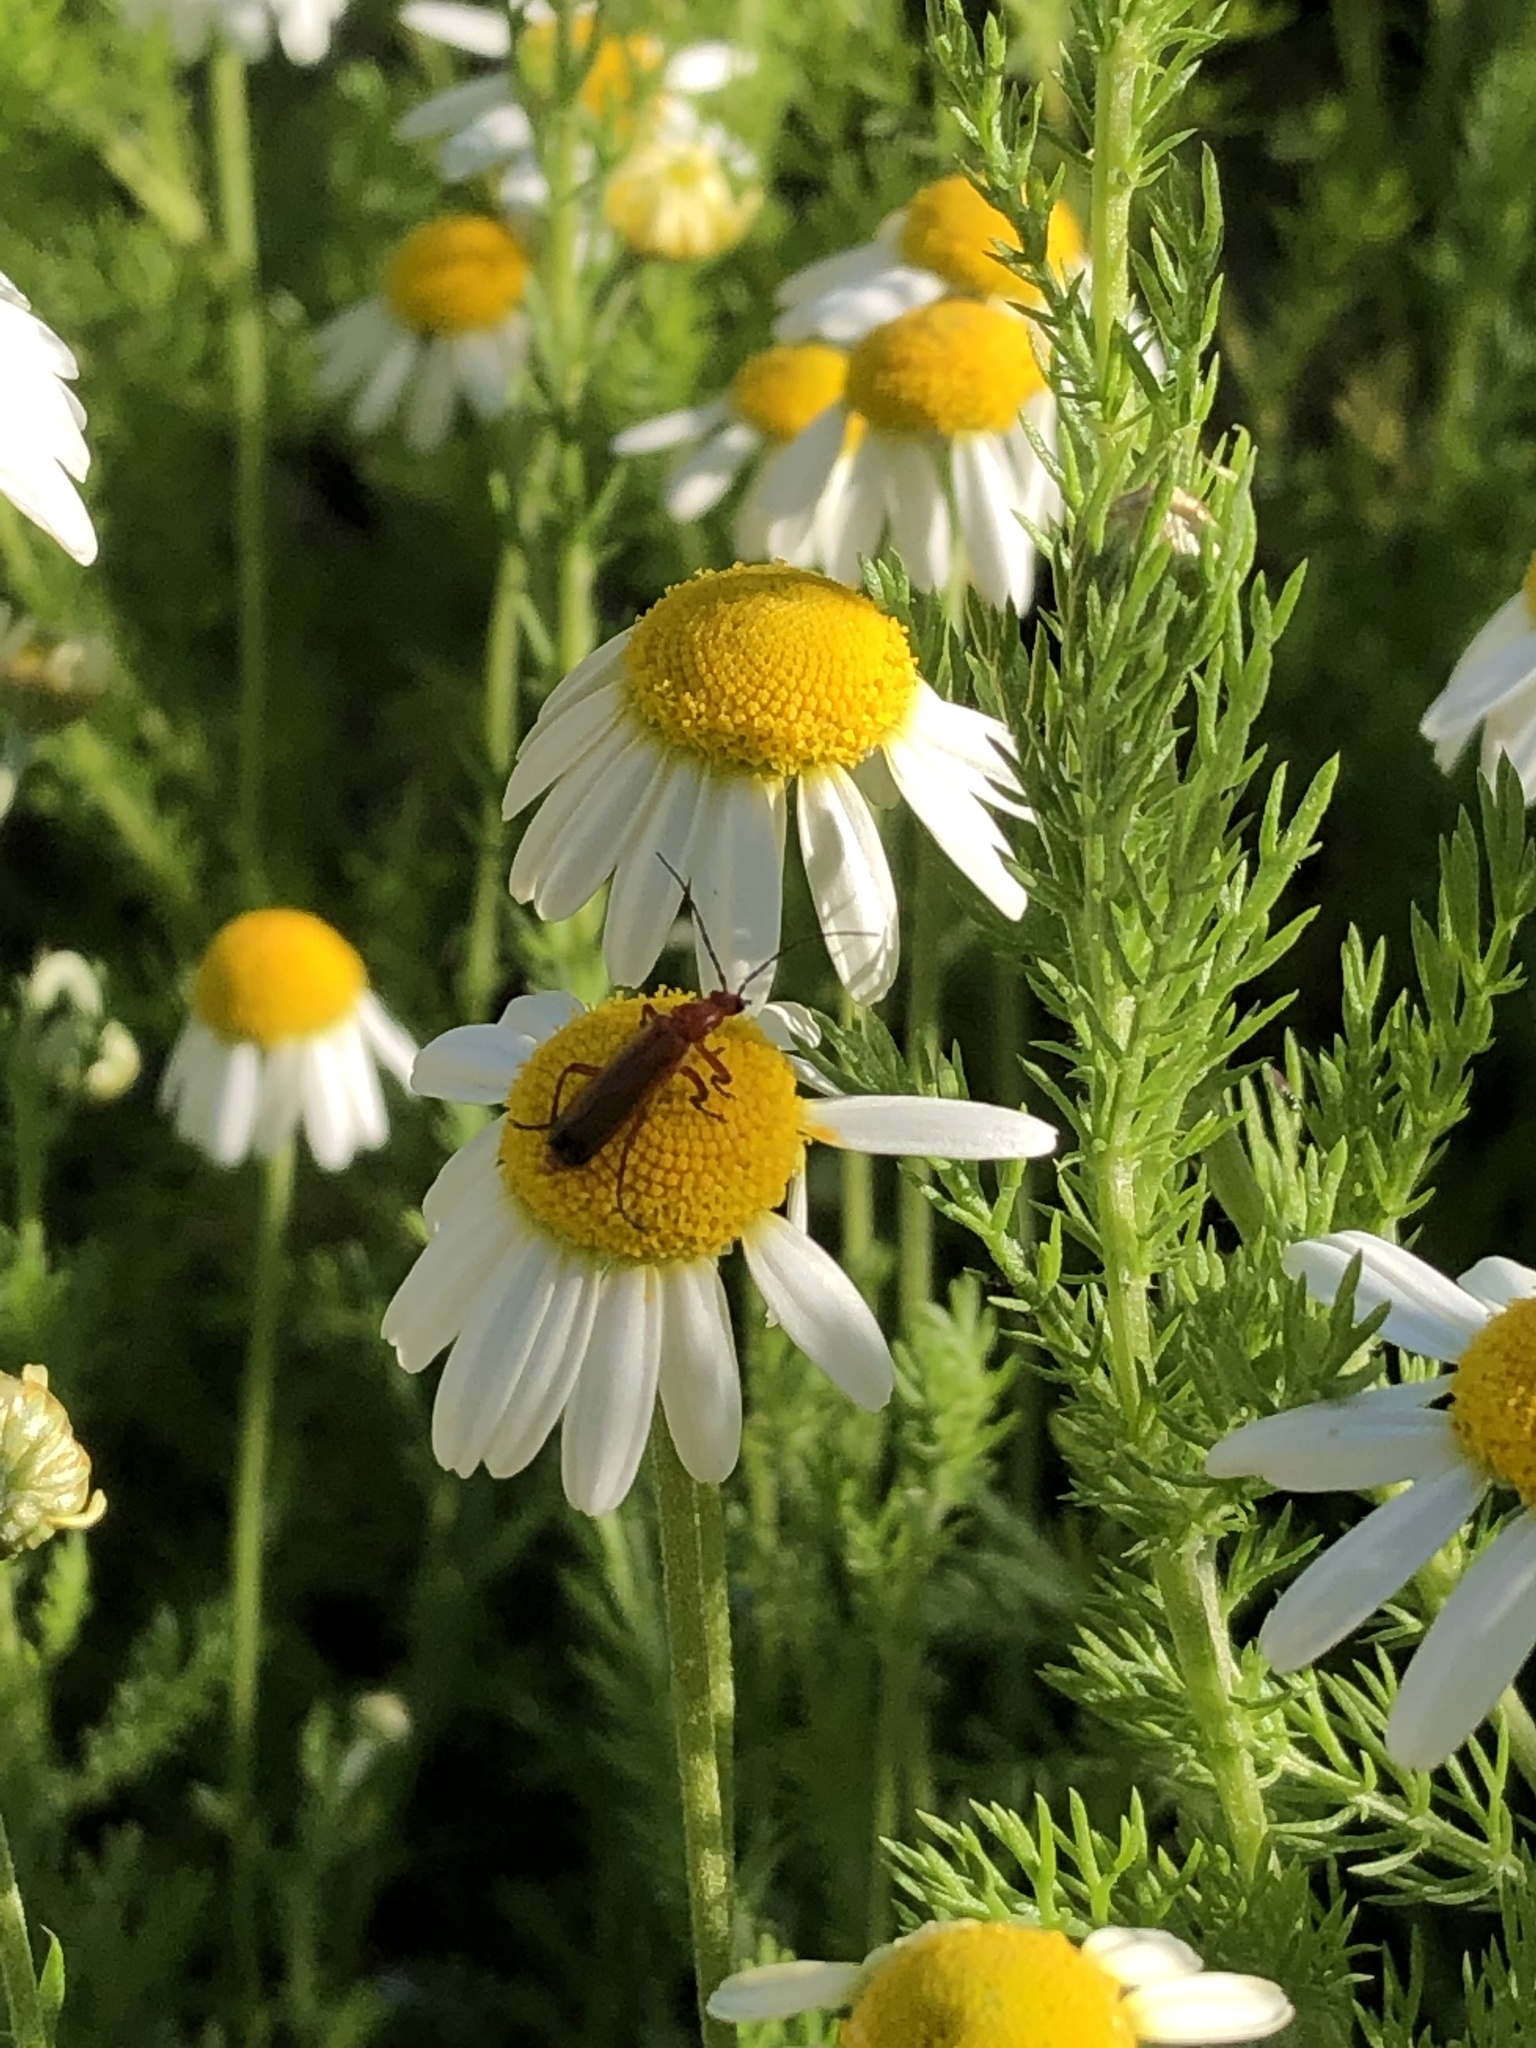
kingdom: Animalia
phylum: Arthropoda
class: Insecta
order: Coleoptera
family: Cantharidae
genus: Rhagonycha
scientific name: Rhagonycha fulva
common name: Common red soldier beetle
